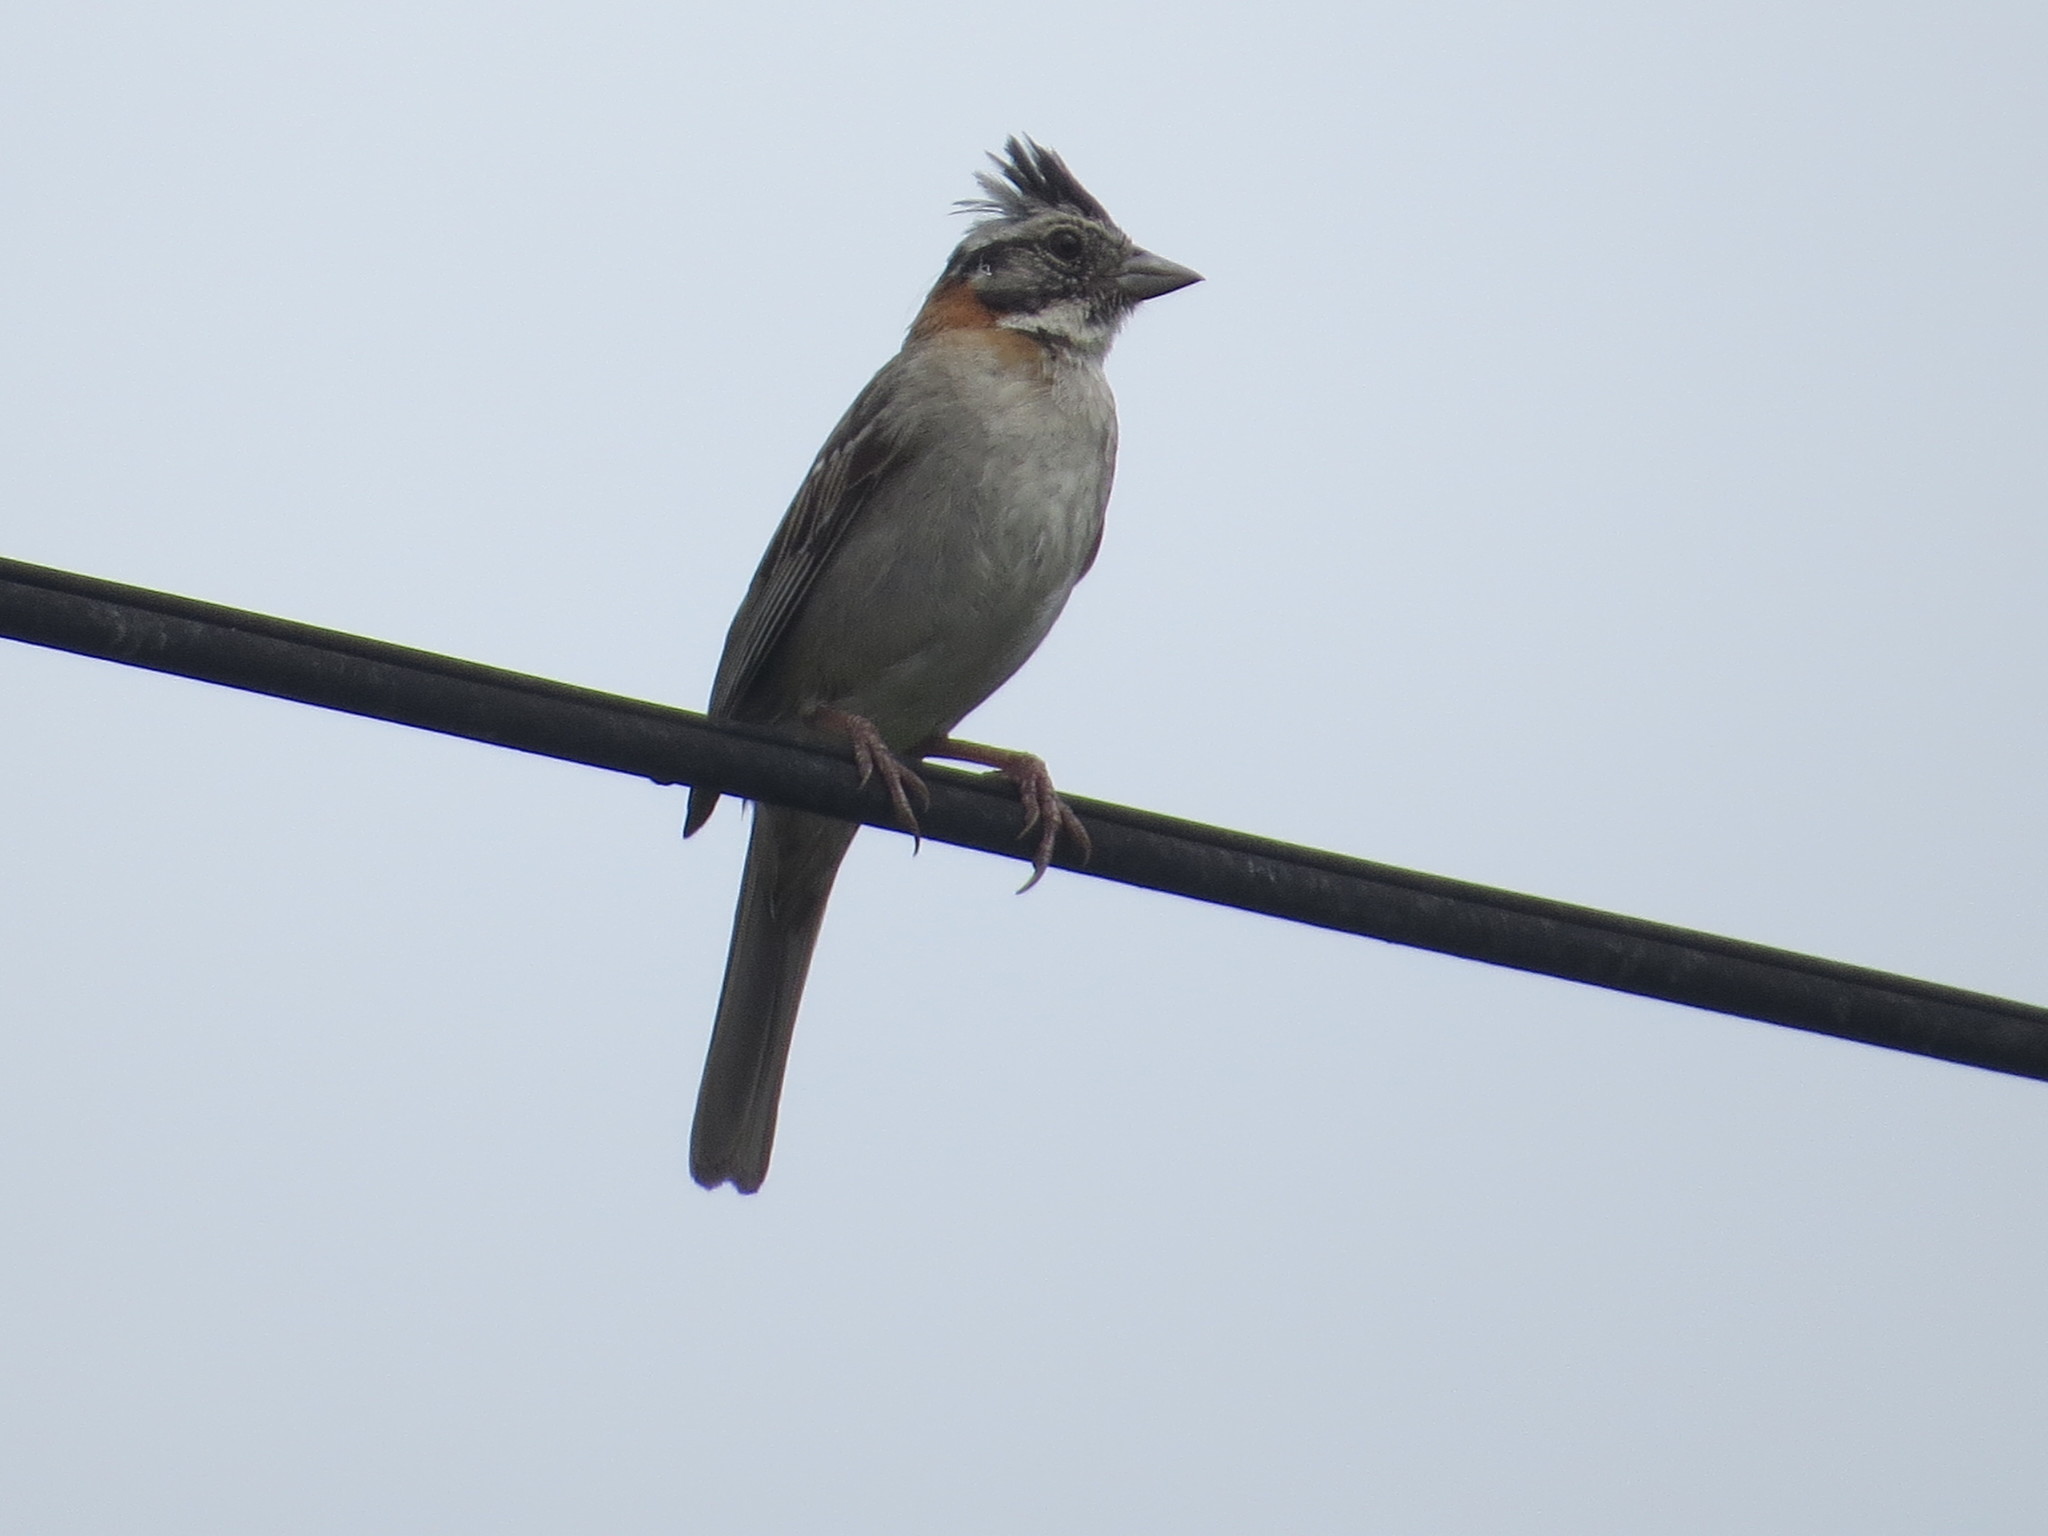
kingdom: Animalia
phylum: Chordata
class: Aves
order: Passeriformes
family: Passerellidae
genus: Zonotrichia
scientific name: Zonotrichia capensis
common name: Rufous-collared sparrow
